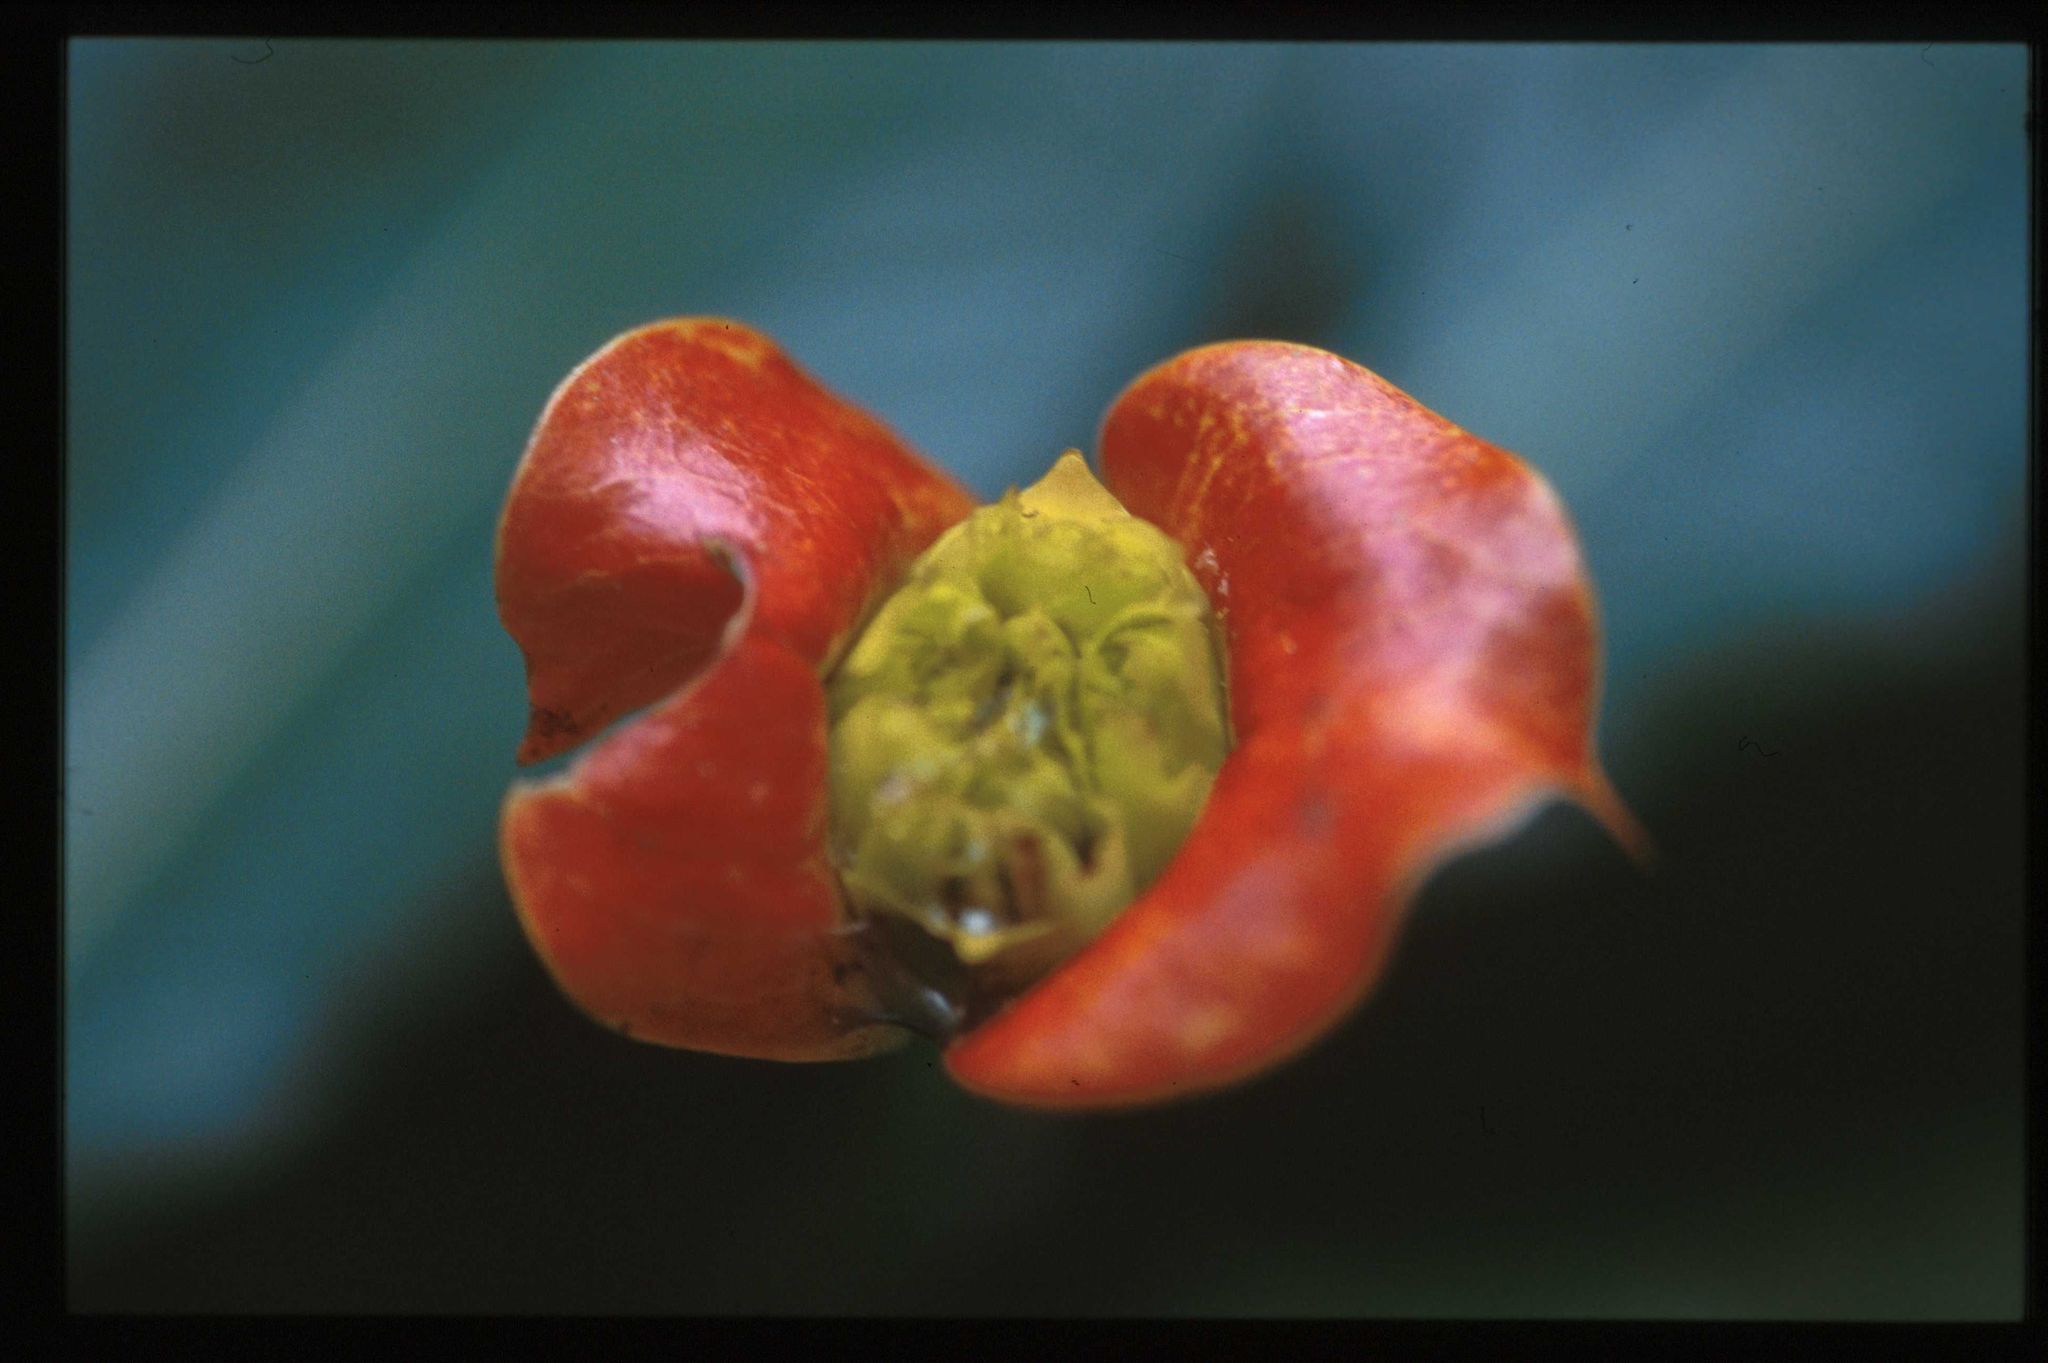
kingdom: Plantae
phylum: Tracheophyta
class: Magnoliopsida
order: Gentianales
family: Rubiaceae
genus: Palicourea
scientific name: Palicourea elata
